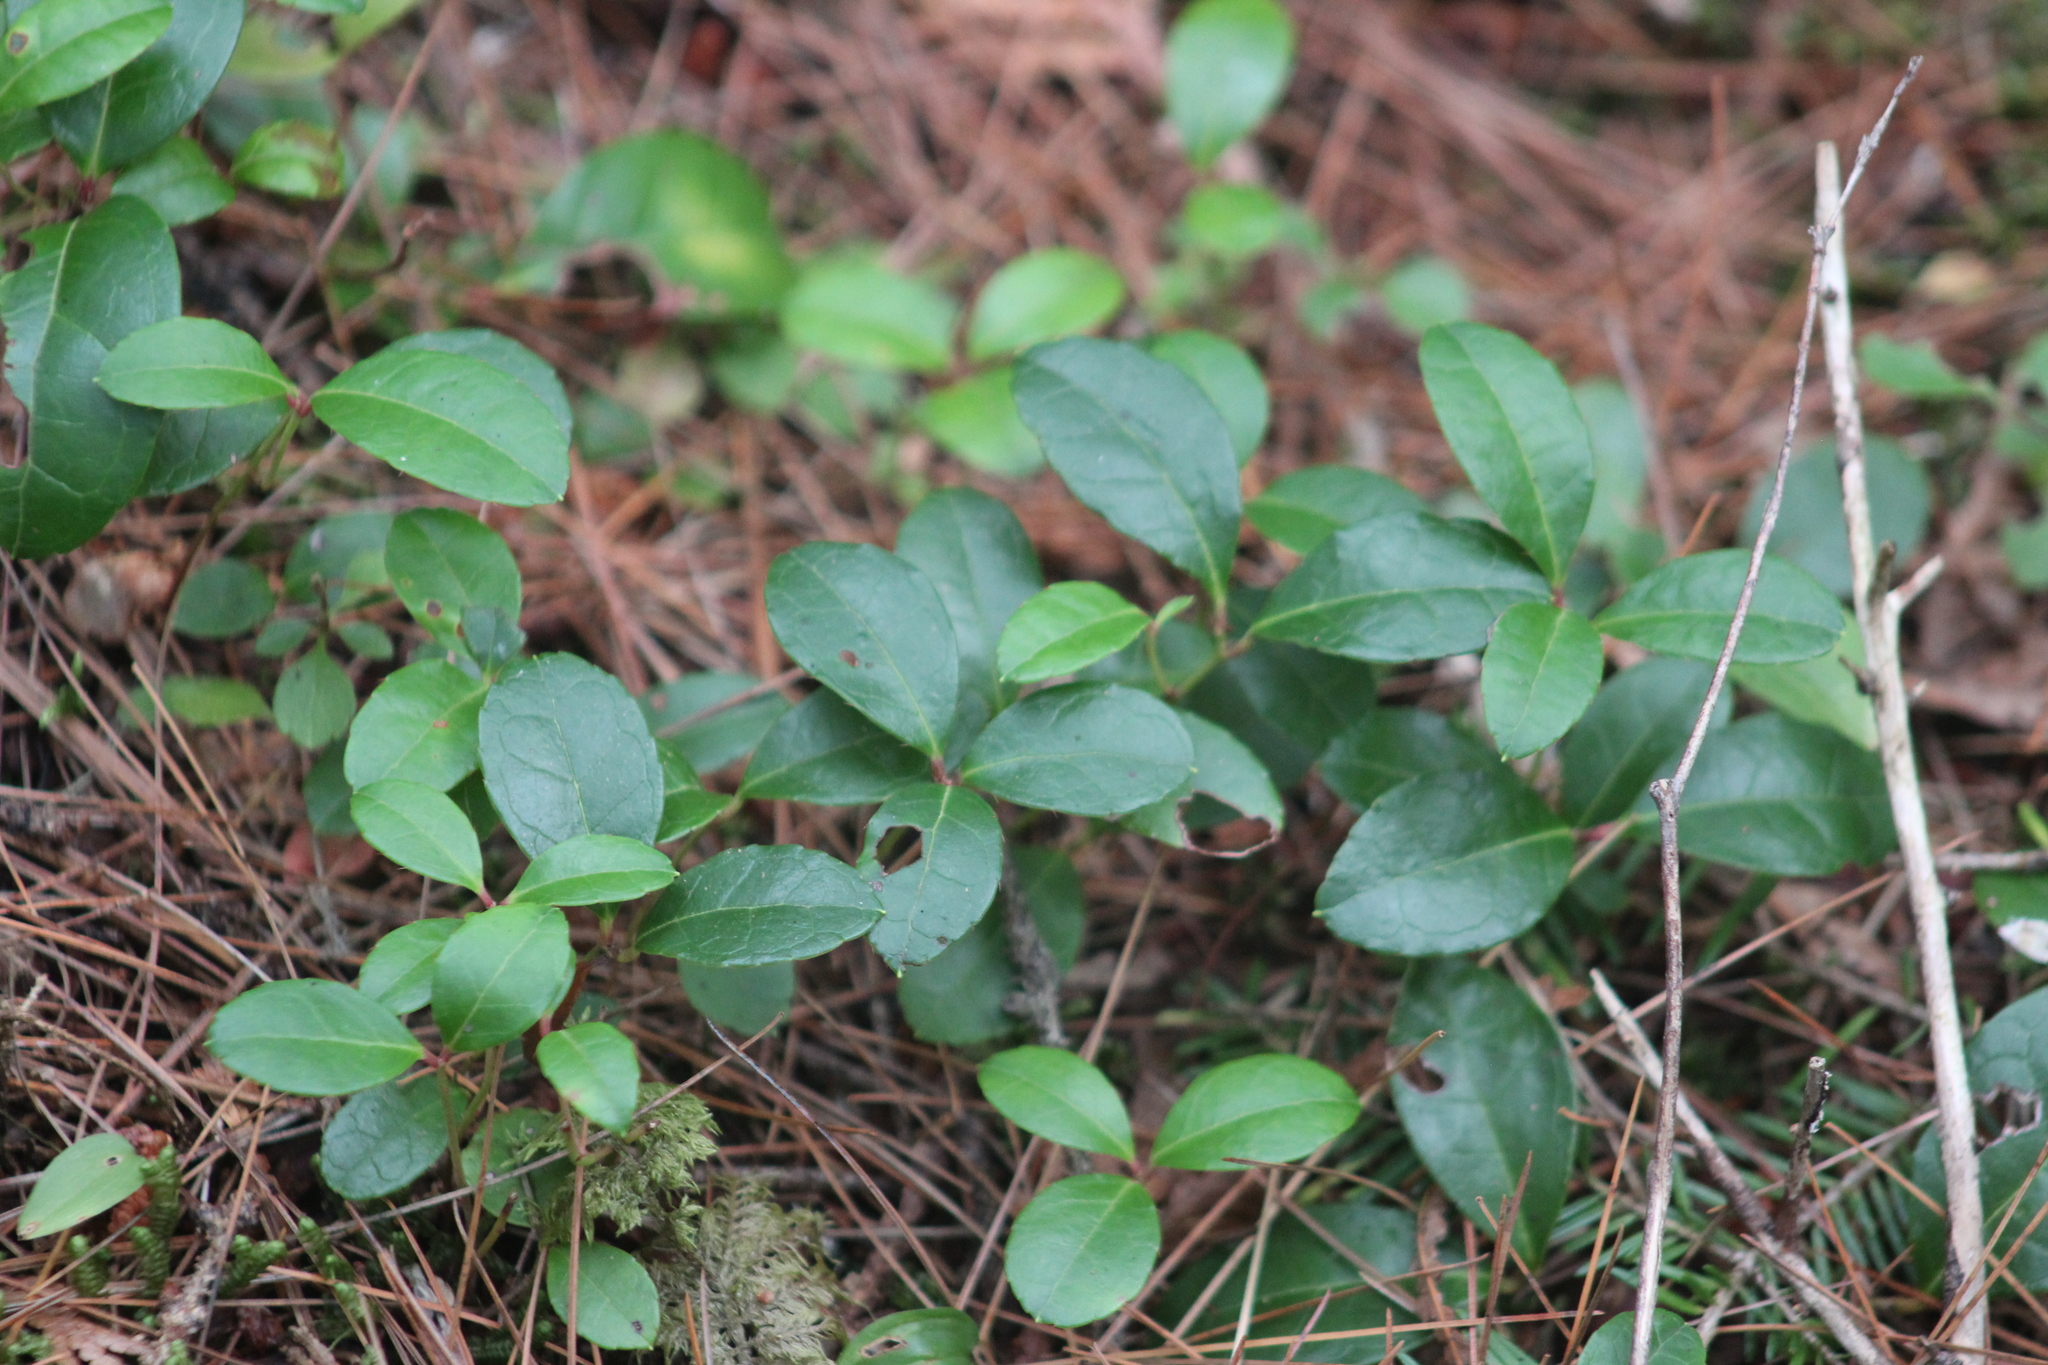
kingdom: Plantae
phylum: Tracheophyta
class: Magnoliopsida
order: Ericales
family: Ericaceae
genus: Gaultheria
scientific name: Gaultheria procumbens
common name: Checkerberry
